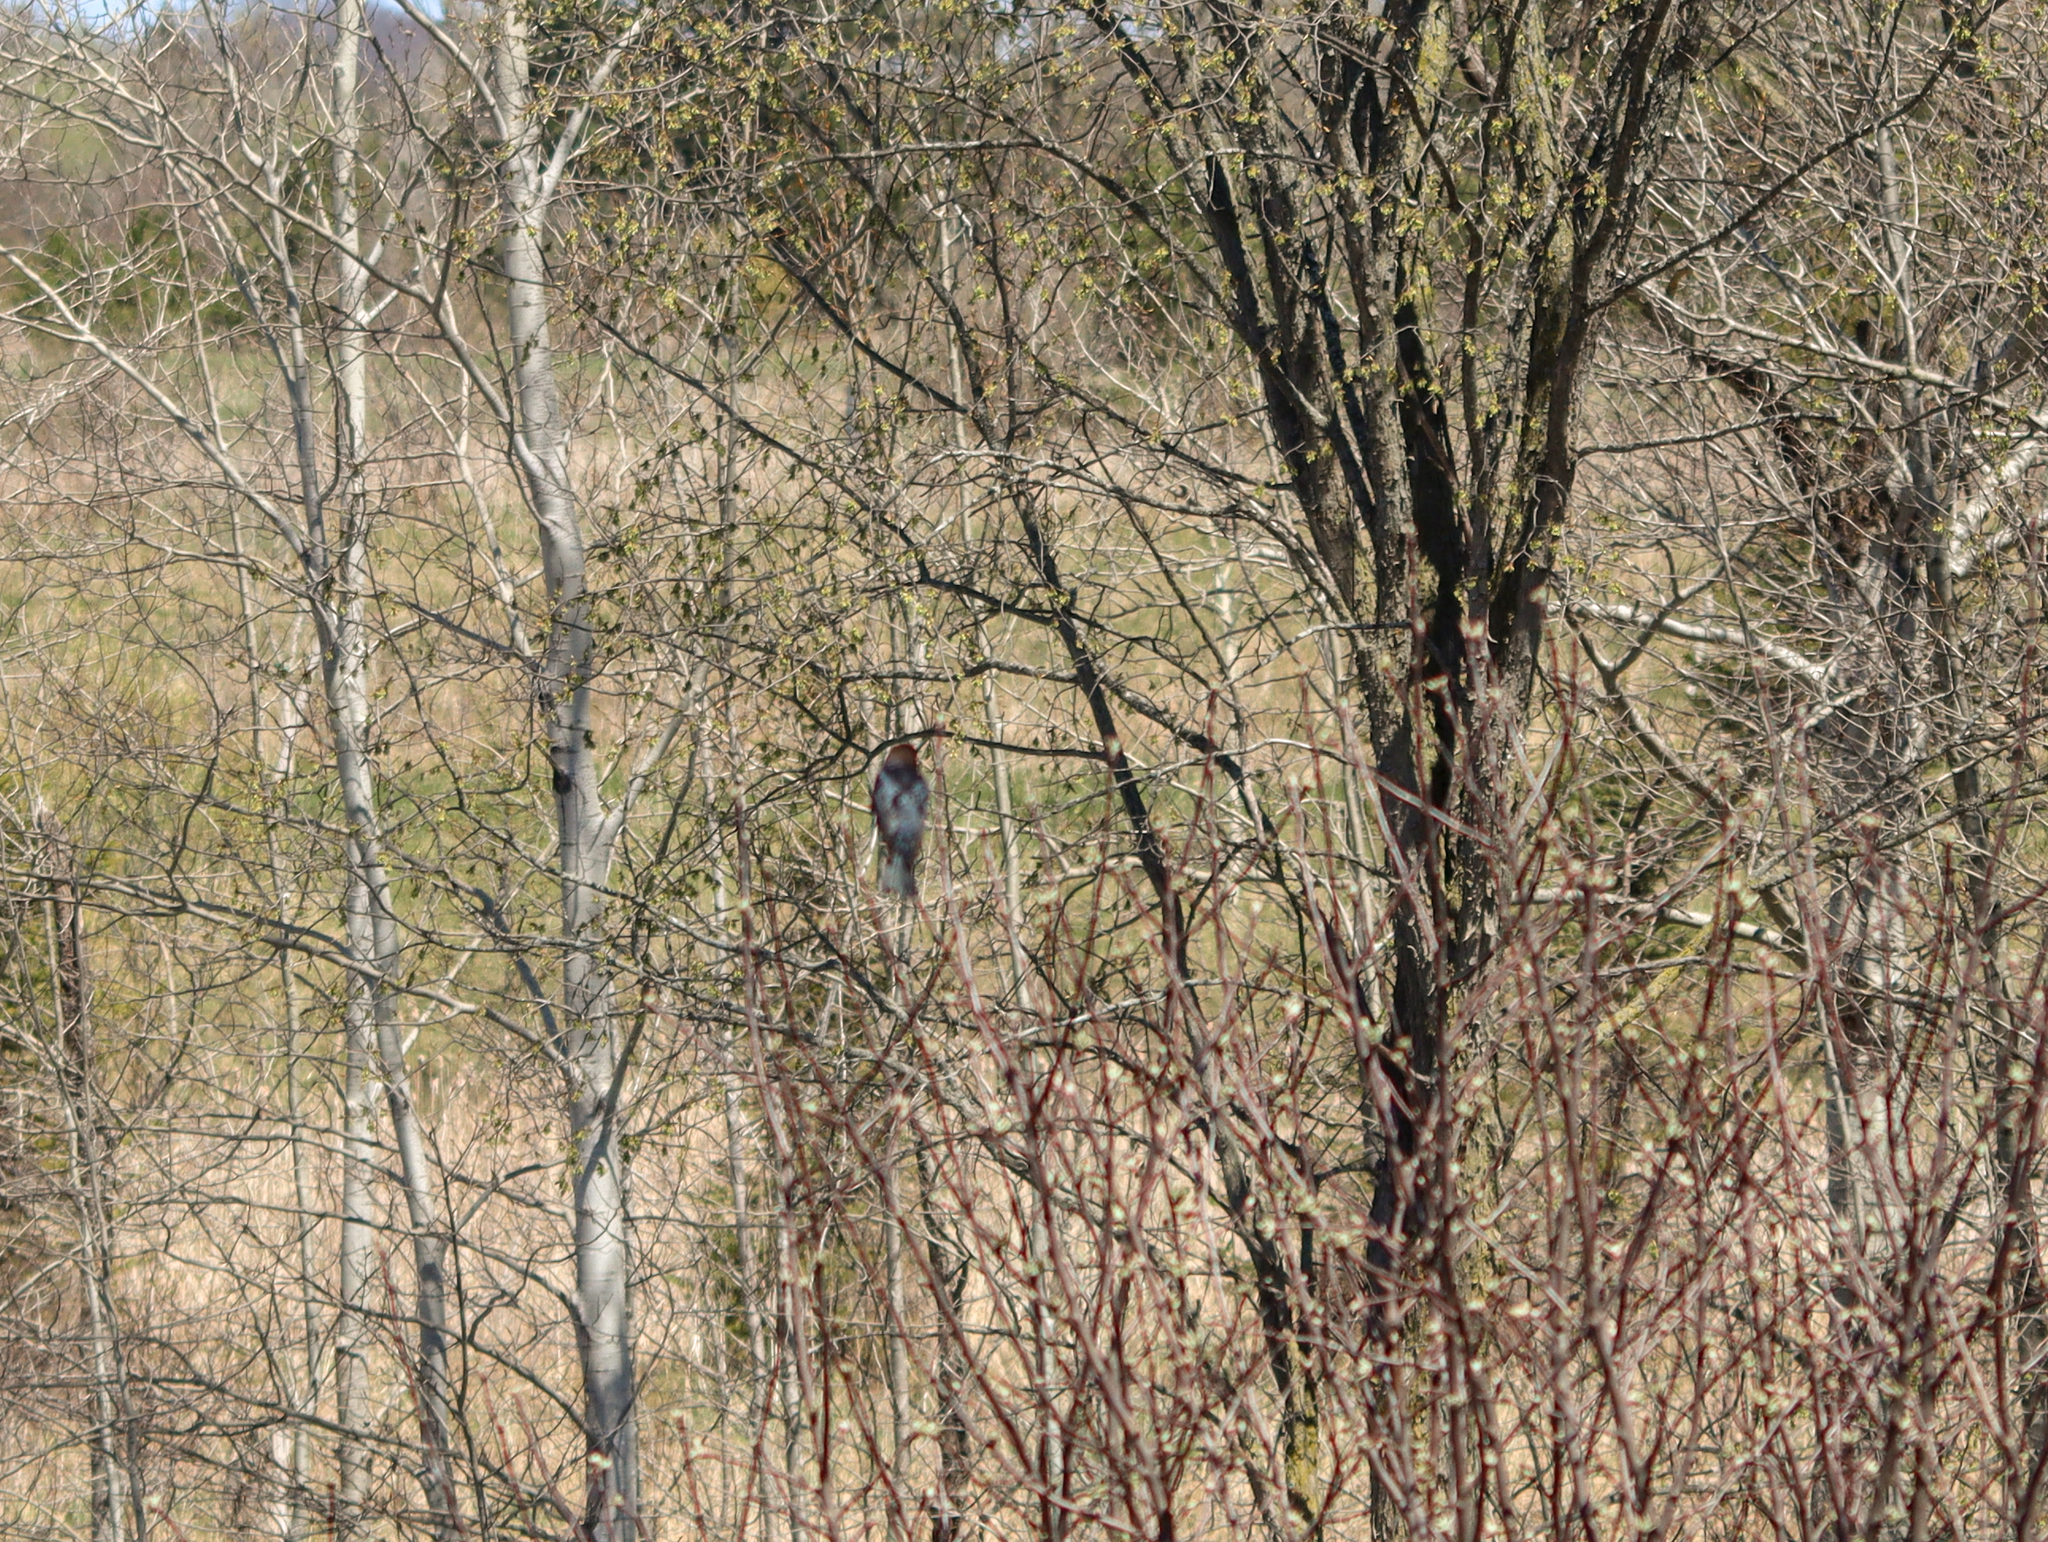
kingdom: Animalia
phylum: Chordata
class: Aves
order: Passeriformes
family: Icteridae
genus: Molothrus
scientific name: Molothrus ater
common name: Brown-headed cowbird
